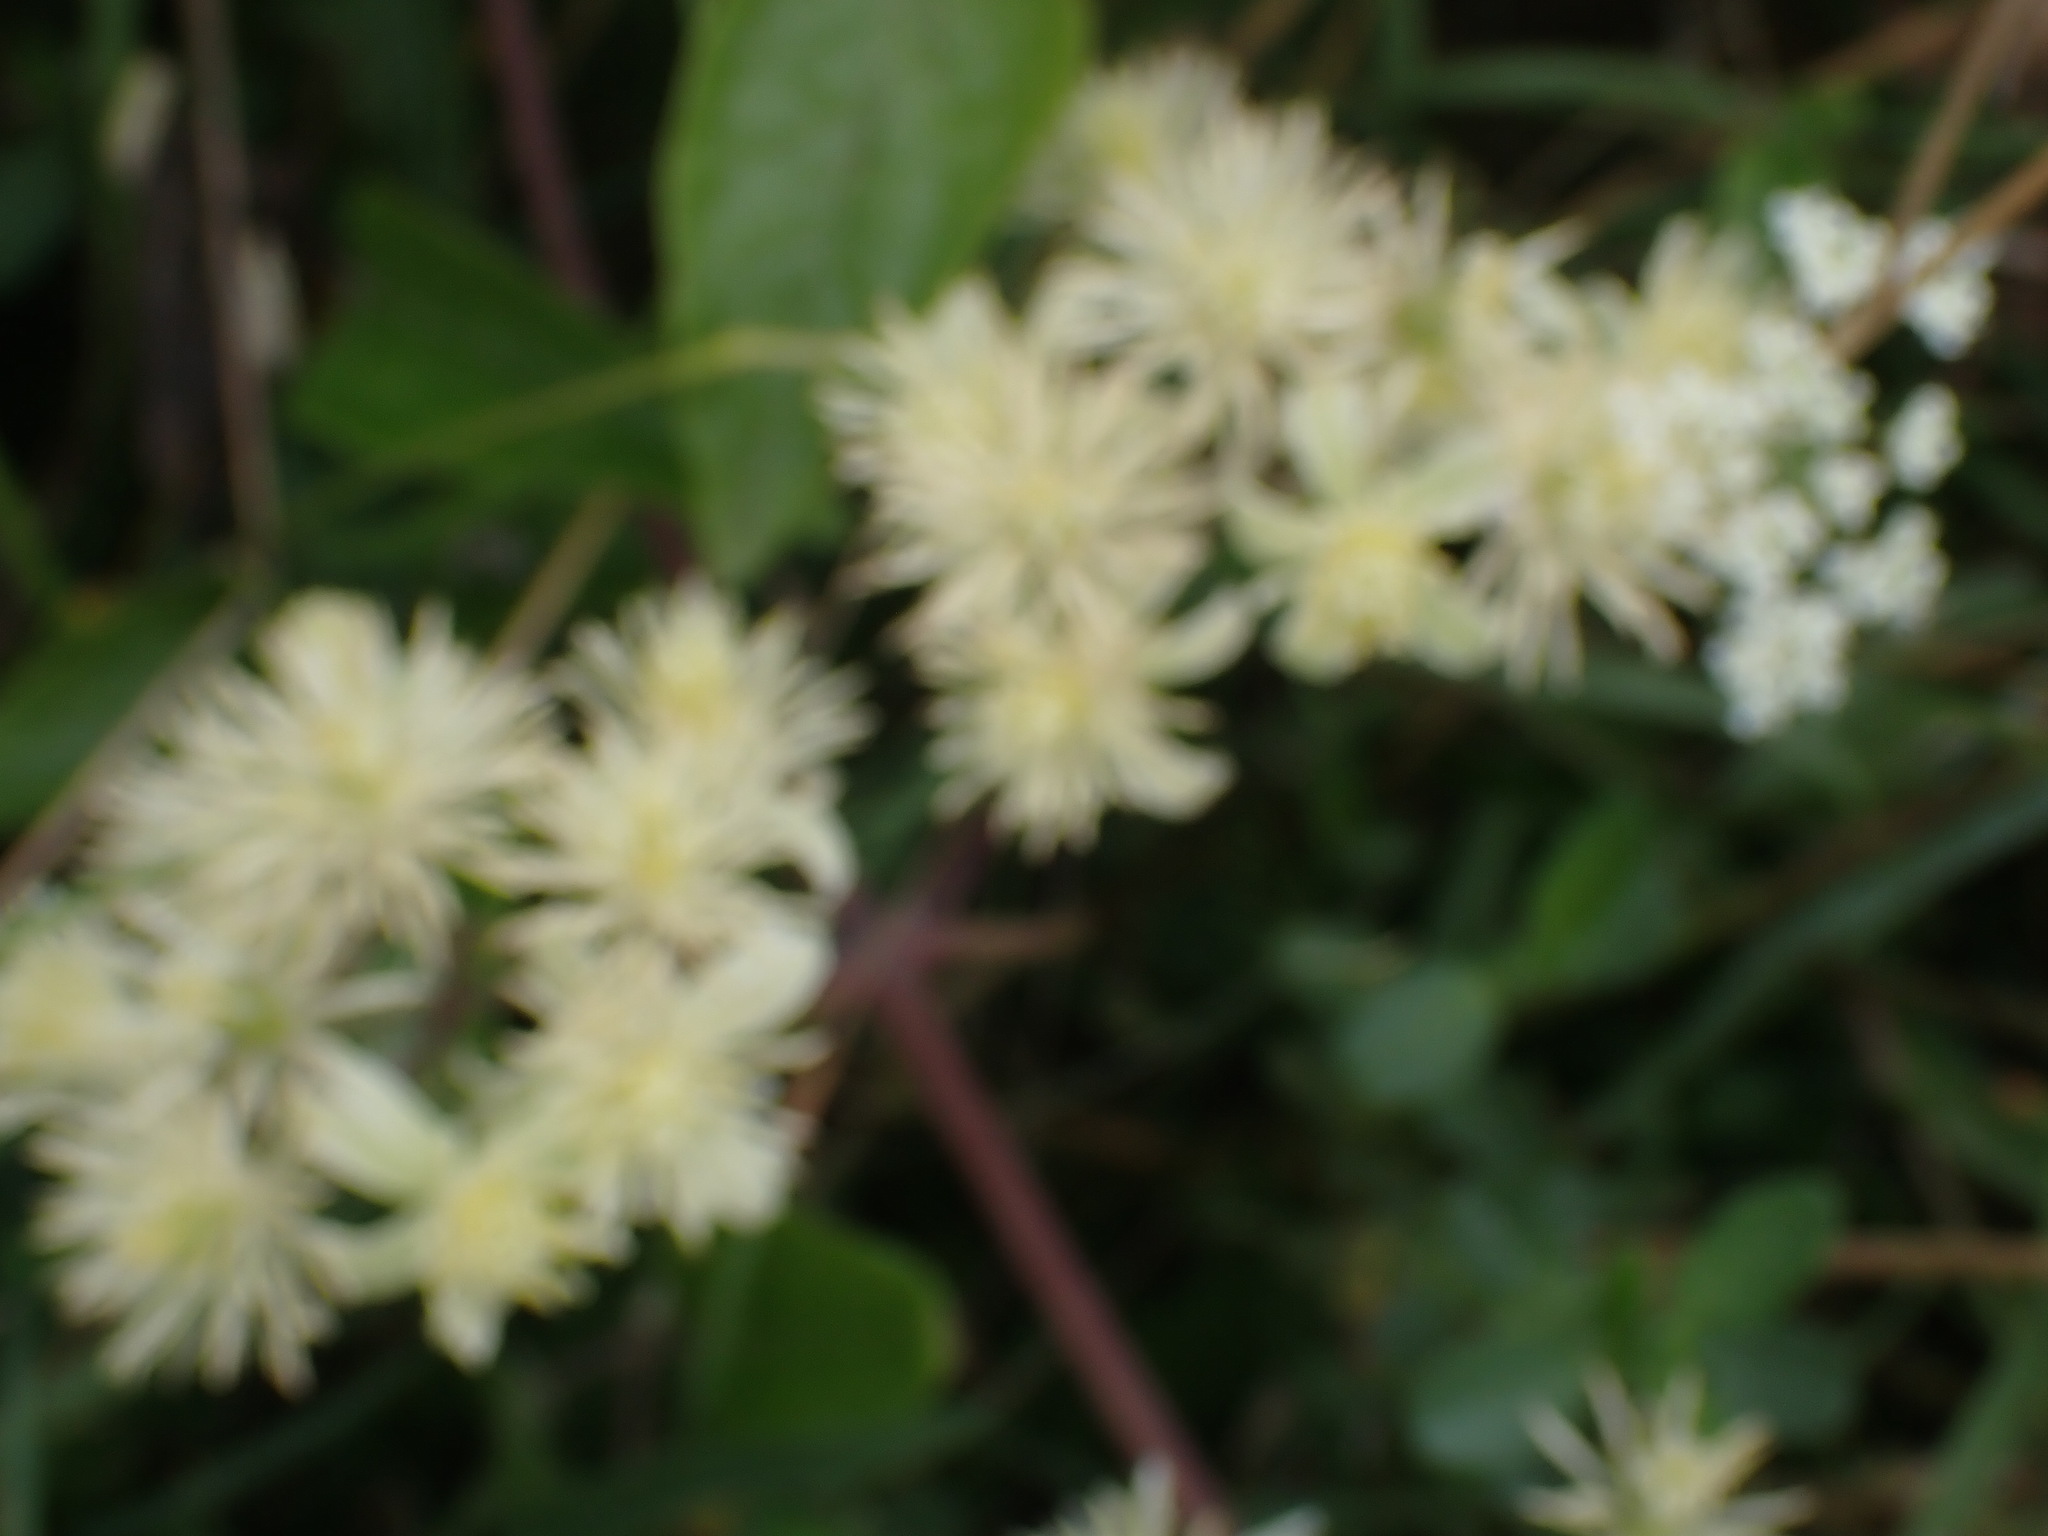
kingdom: Plantae
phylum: Tracheophyta
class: Magnoliopsida
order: Ranunculales
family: Ranunculaceae
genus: Clematis
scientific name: Clematis vitalba
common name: Evergreen clematis
